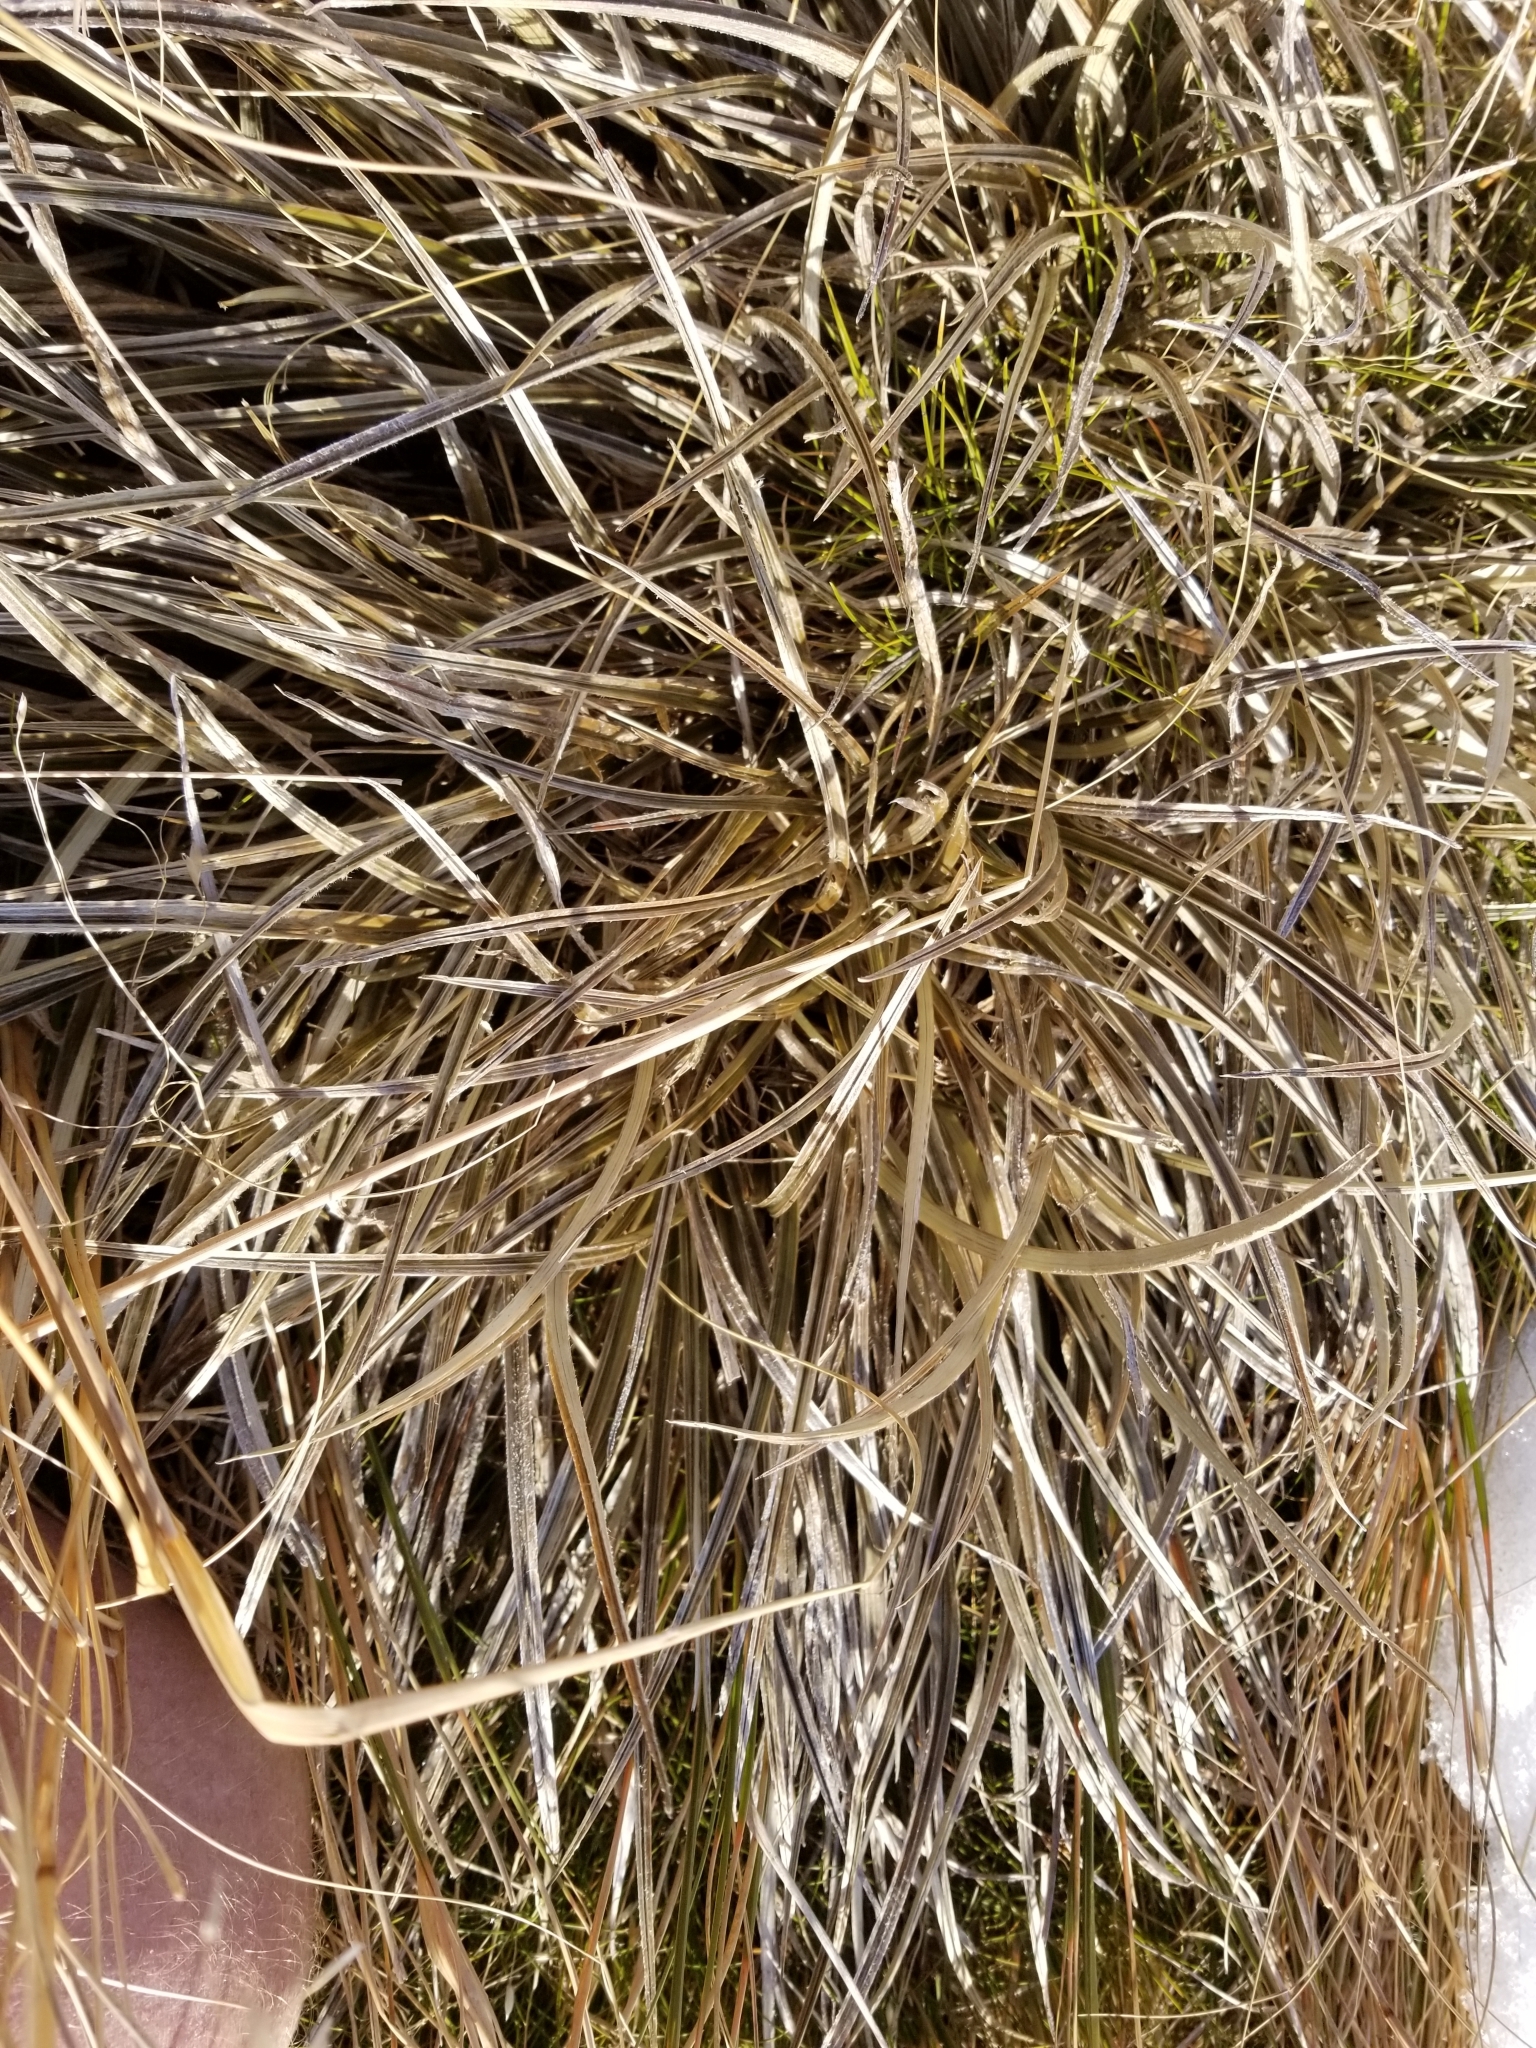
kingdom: Plantae
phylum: Tracheophyta
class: Liliopsida
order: Asparagales
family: Asteliaceae
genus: Astelia
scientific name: Astelia graminea
